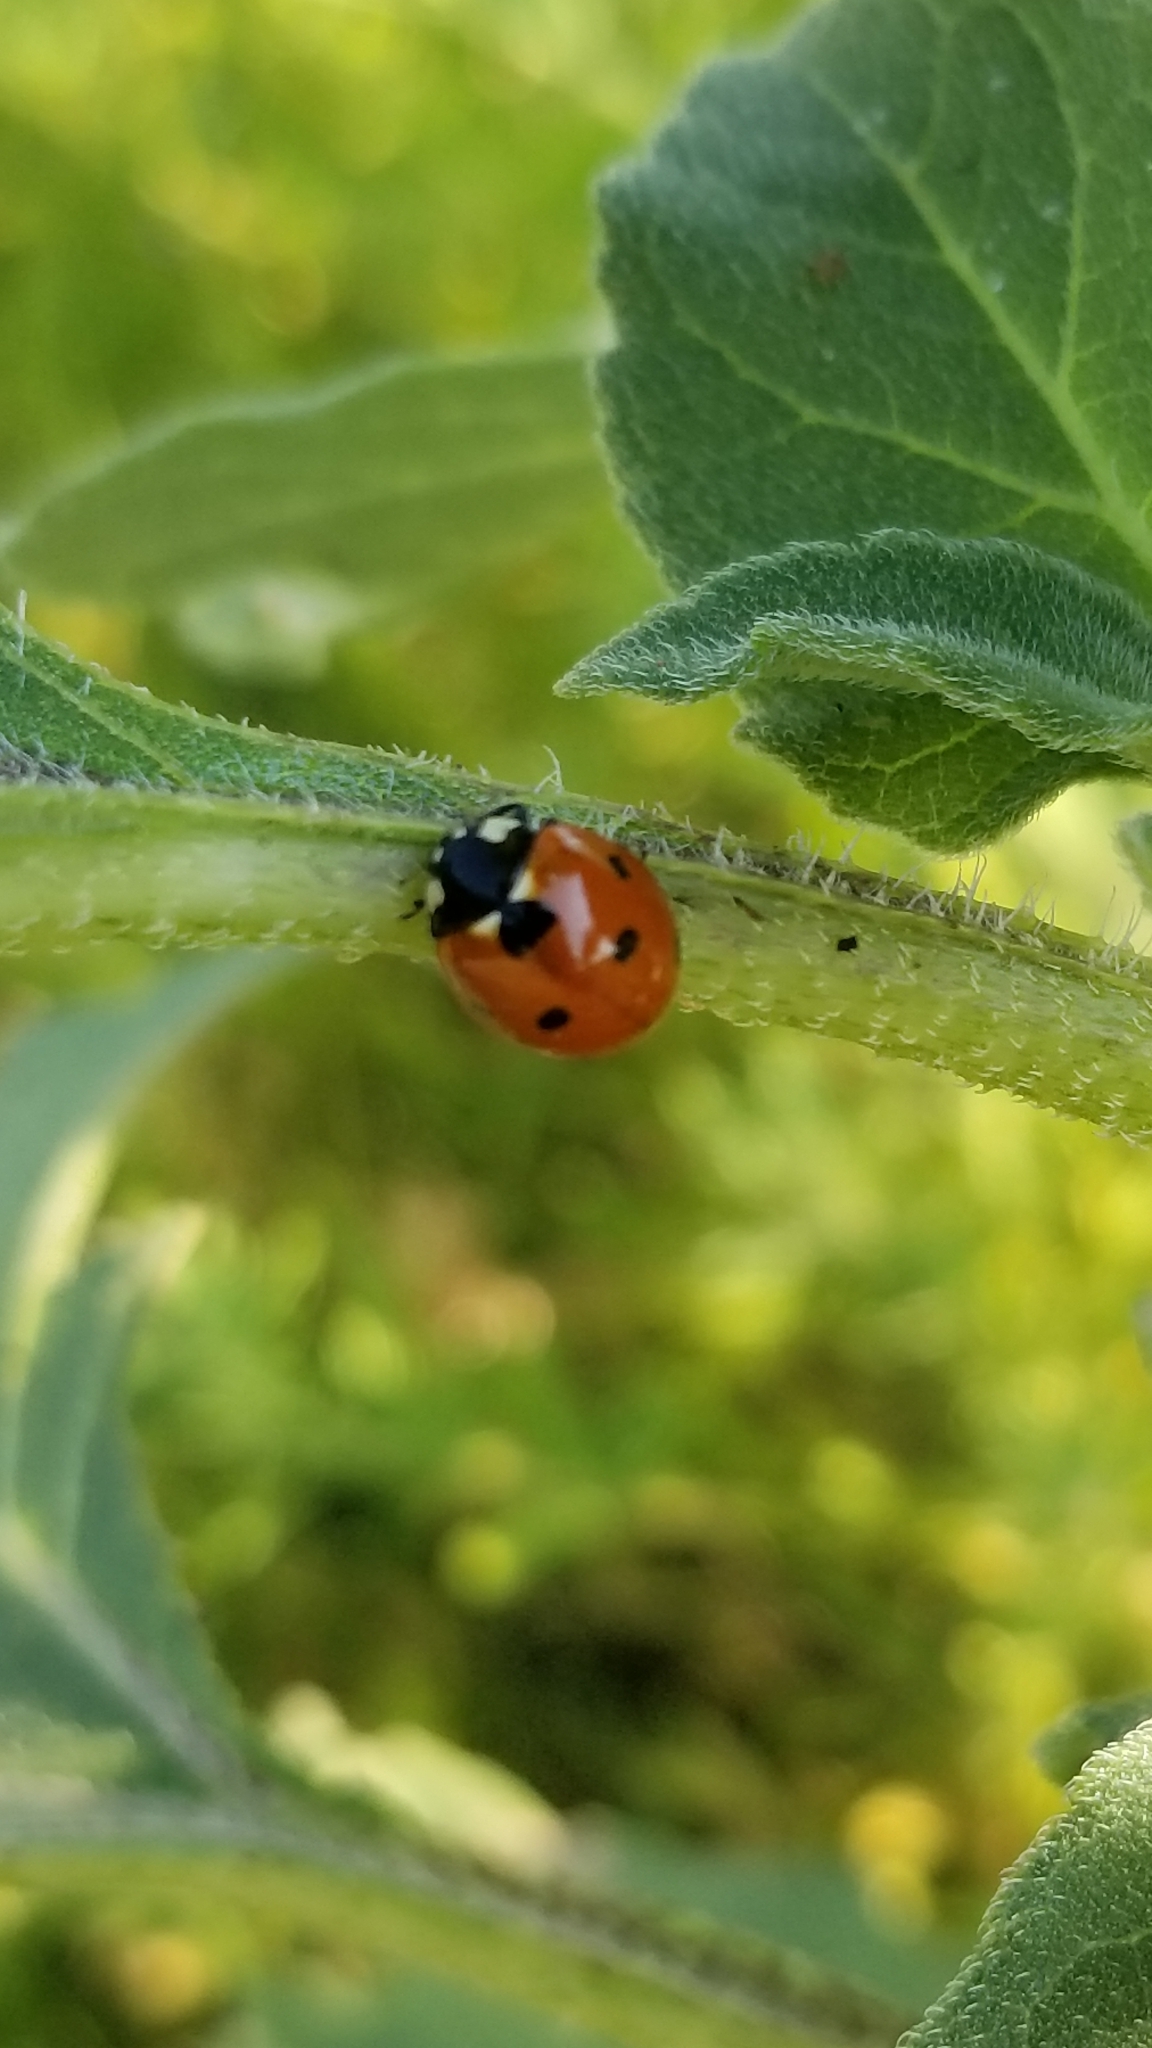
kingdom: Animalia
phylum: Arthropoda
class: Insecta
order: Coleoptera
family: Coccinellidae
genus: Coccinella
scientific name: Coccinella septempunctata
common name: Sevenspotted lady beetle
